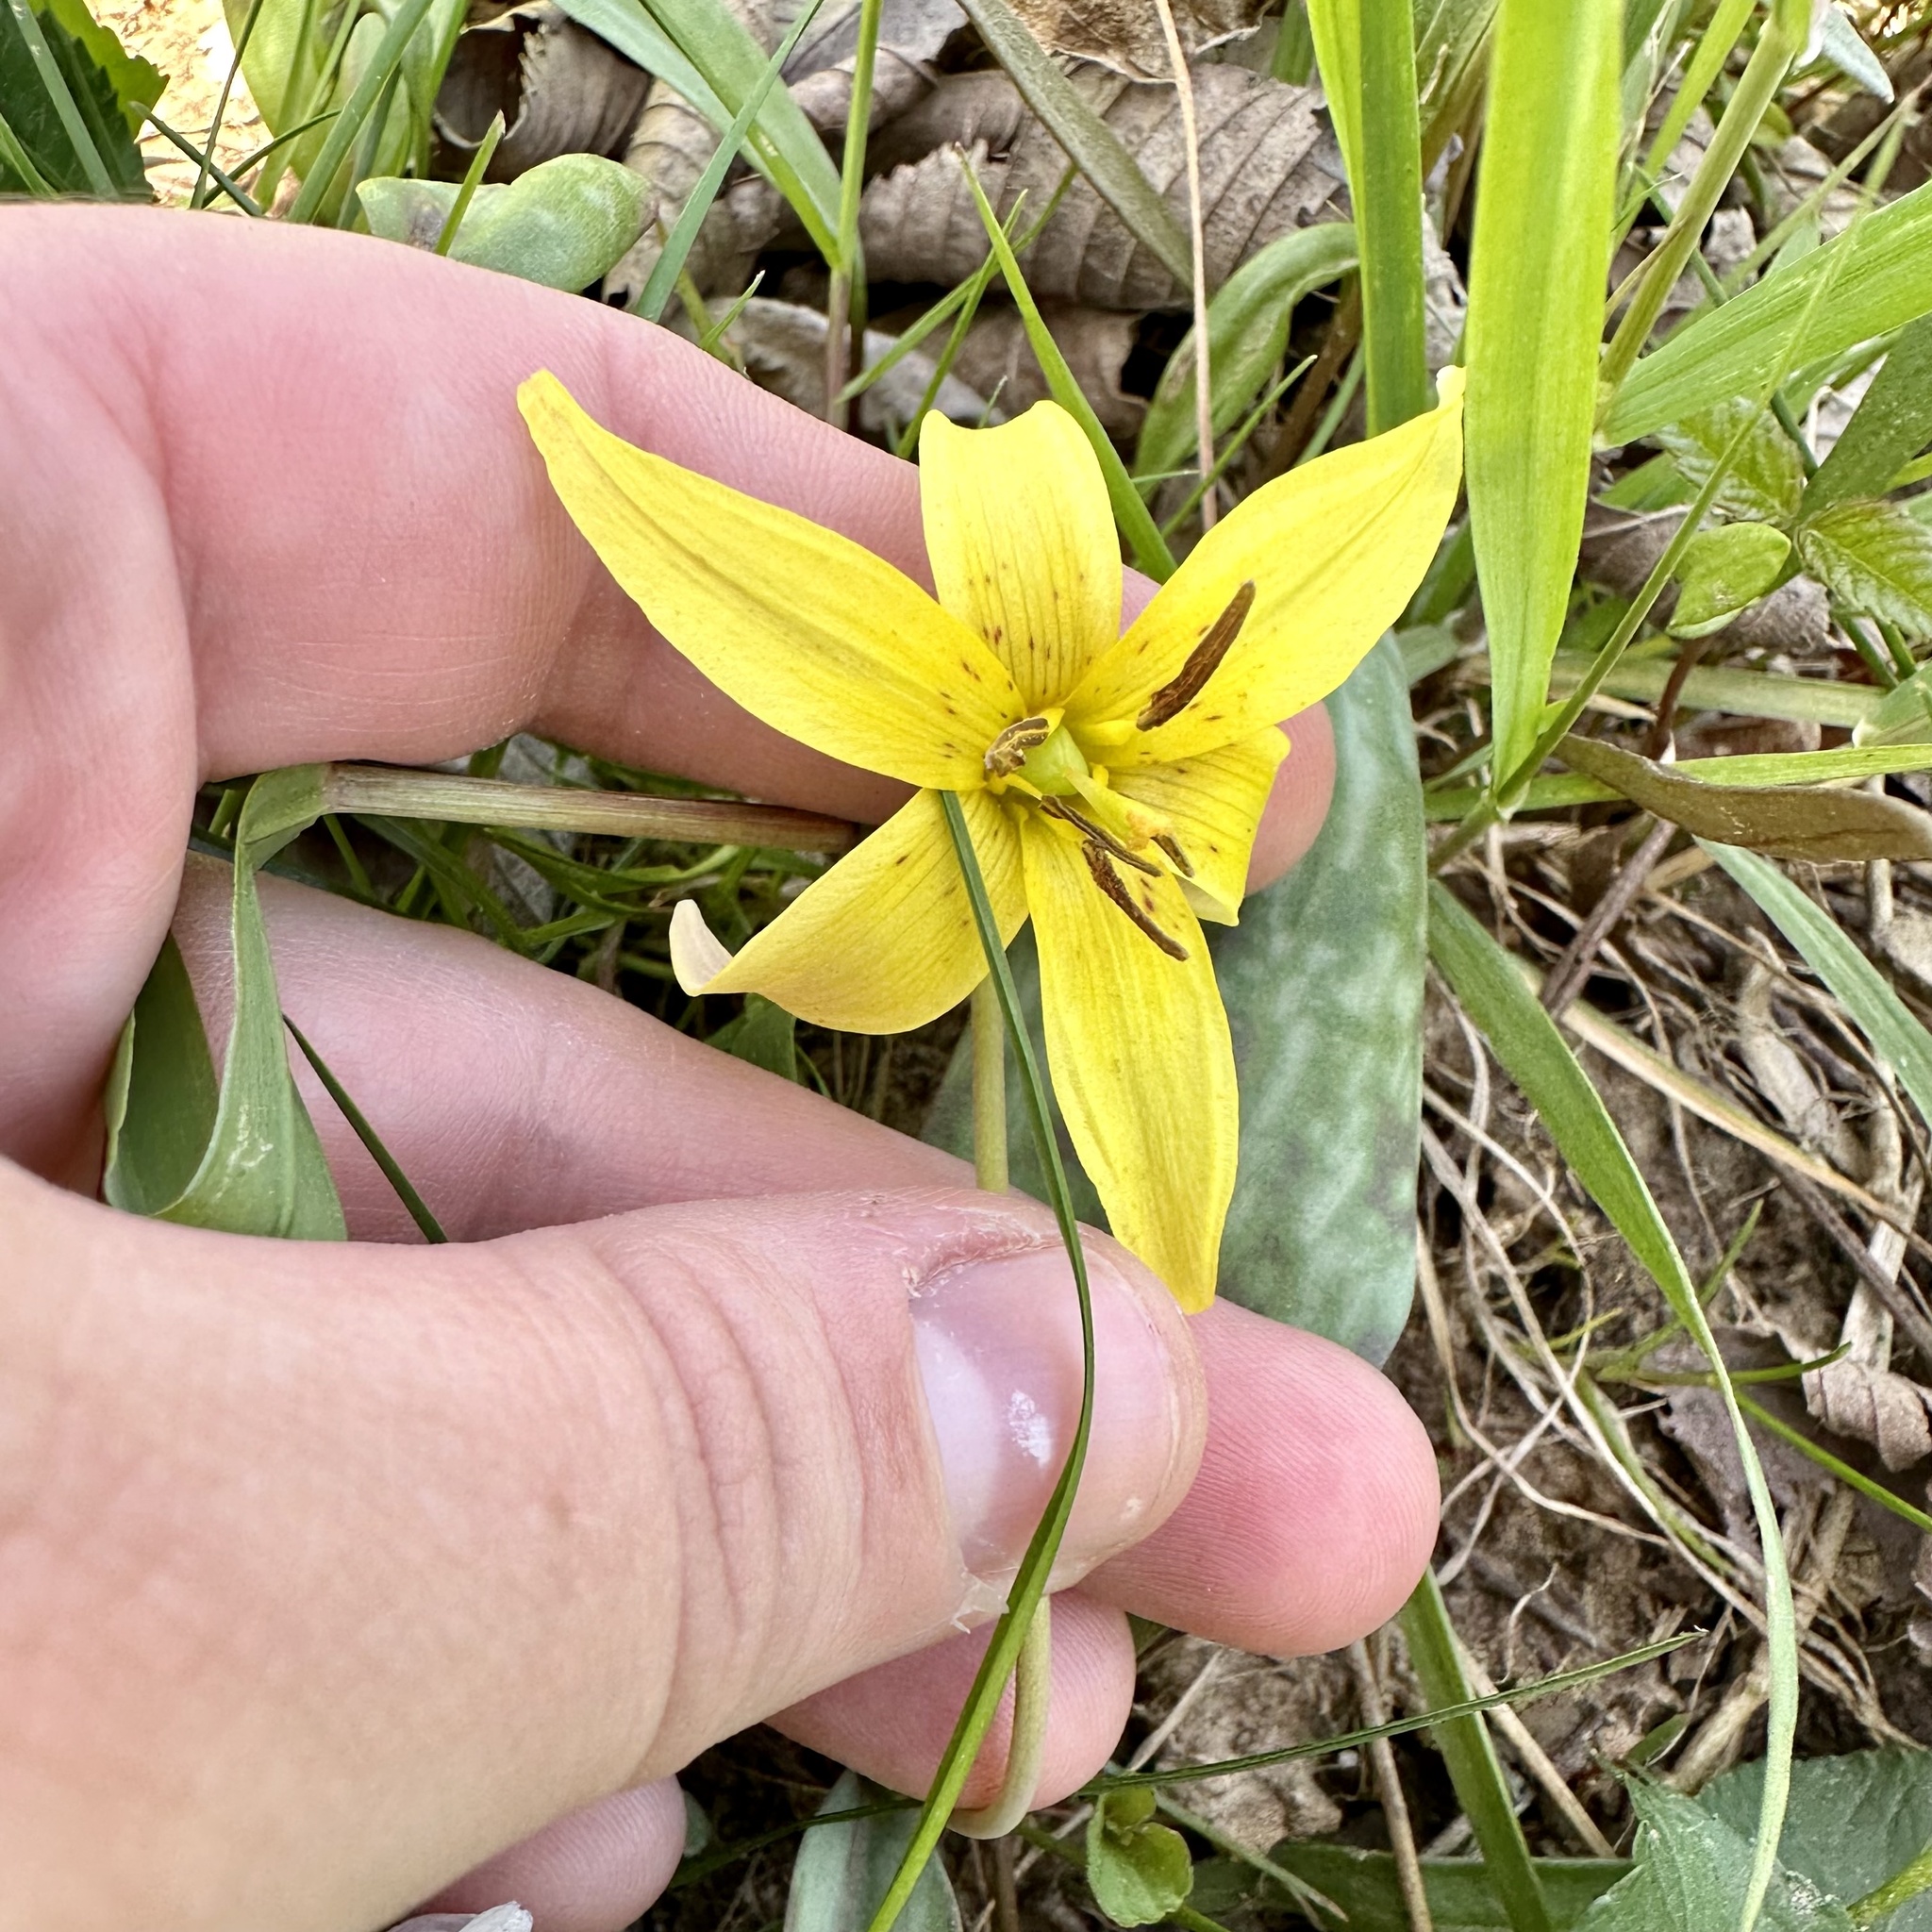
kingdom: Plantae
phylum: Tracheophyta
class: Liliopsida
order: Liliales
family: Liliaceae
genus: Erythronium
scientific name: Erythronium americanum
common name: Yellow adder's-tongue
